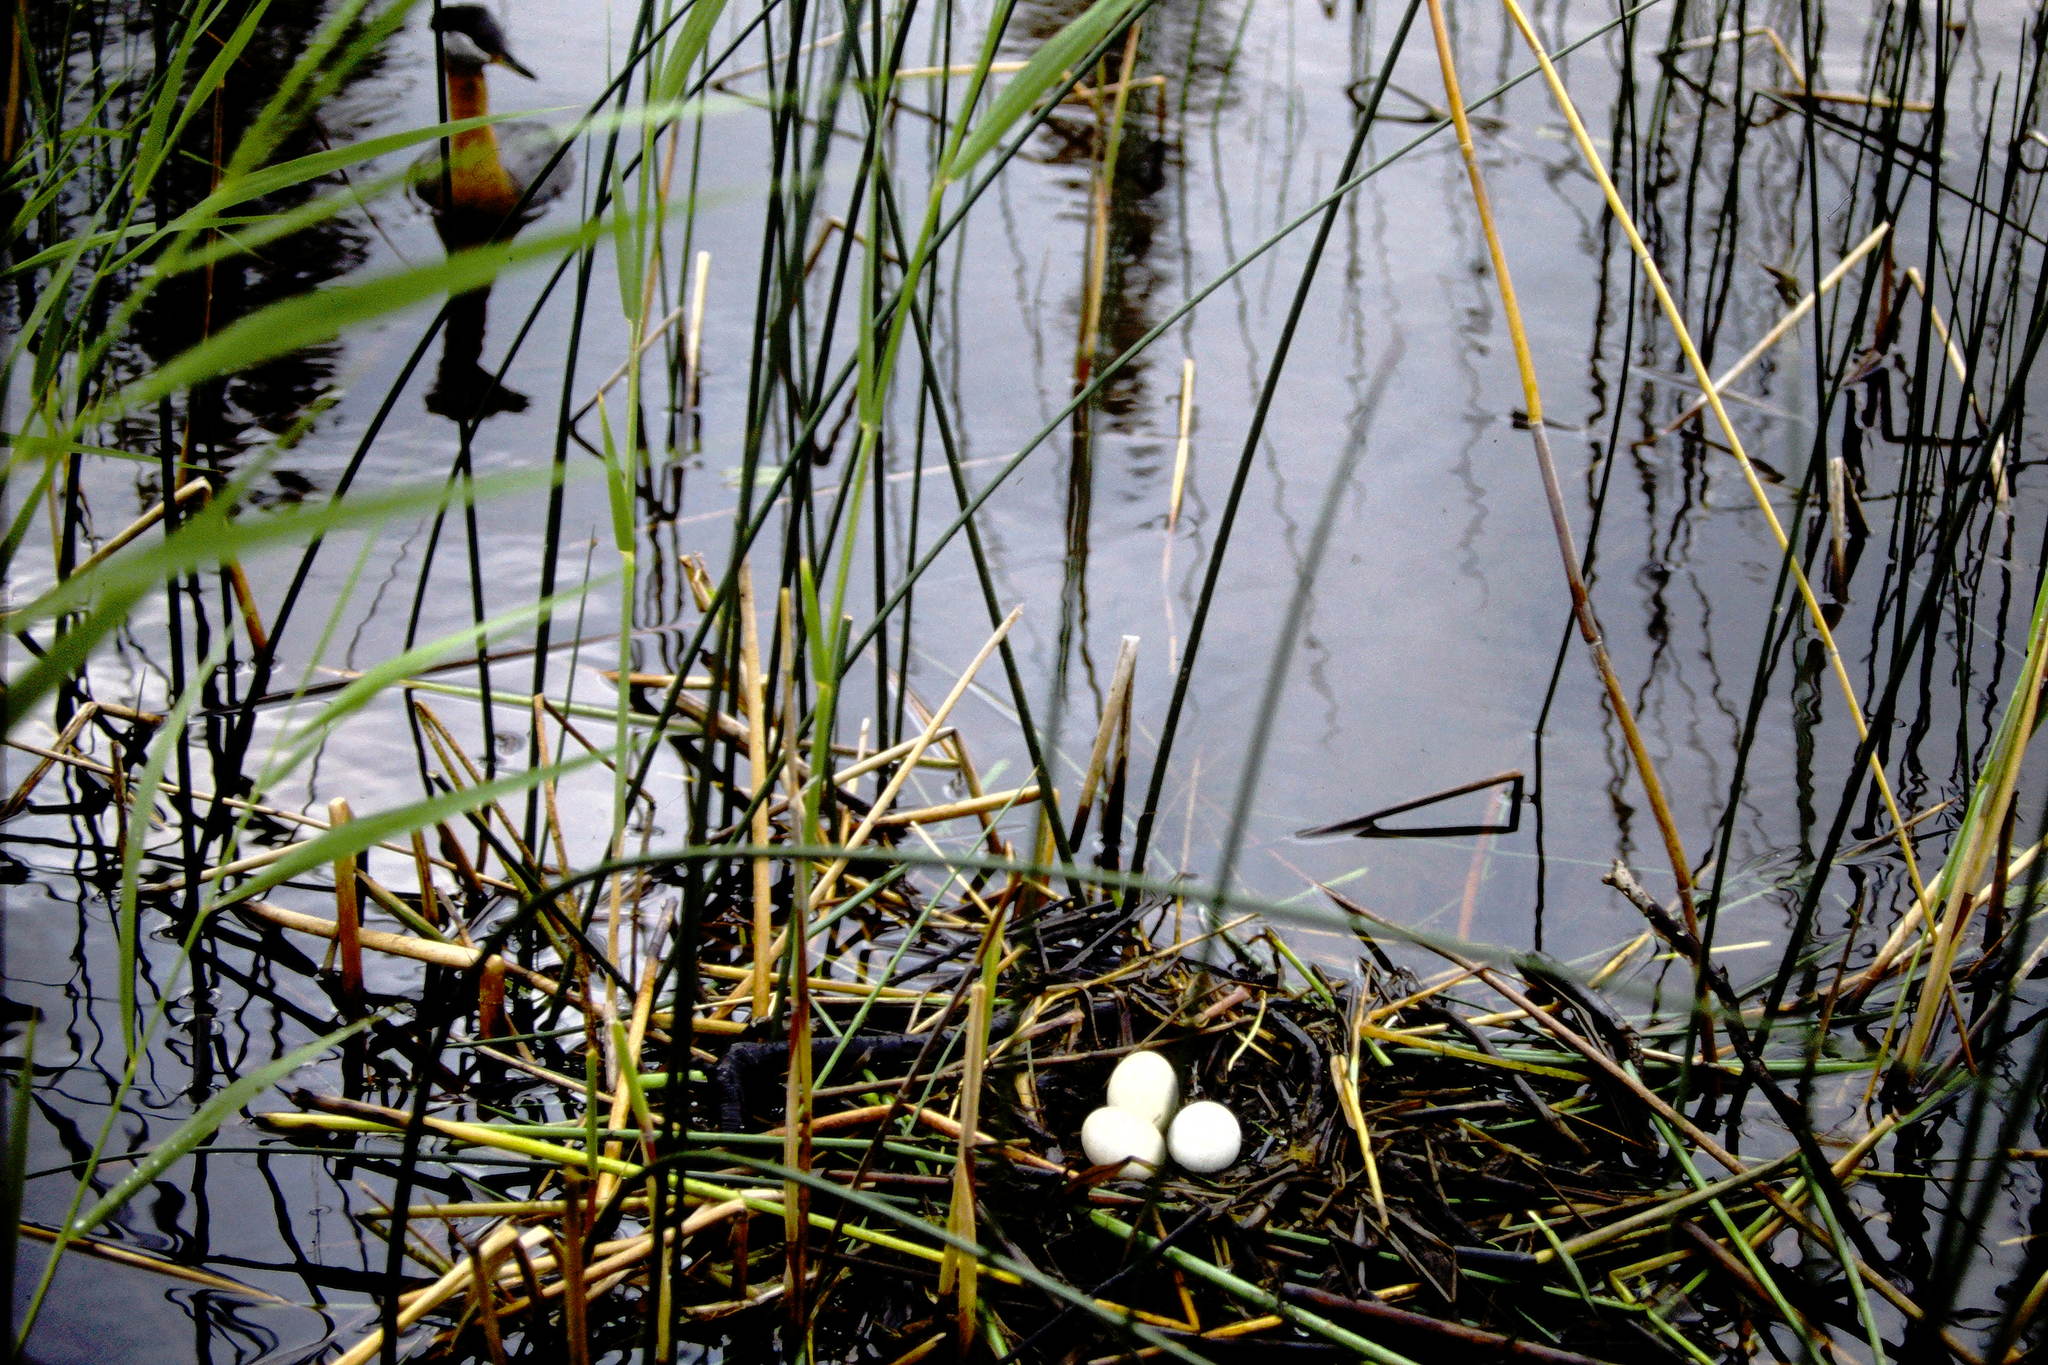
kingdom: Animalia
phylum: Chordata
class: Aves
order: Podicipediformes
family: Podicipedidae
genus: Podiceps
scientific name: Podiceps grisegena
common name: Red-necked grebe
